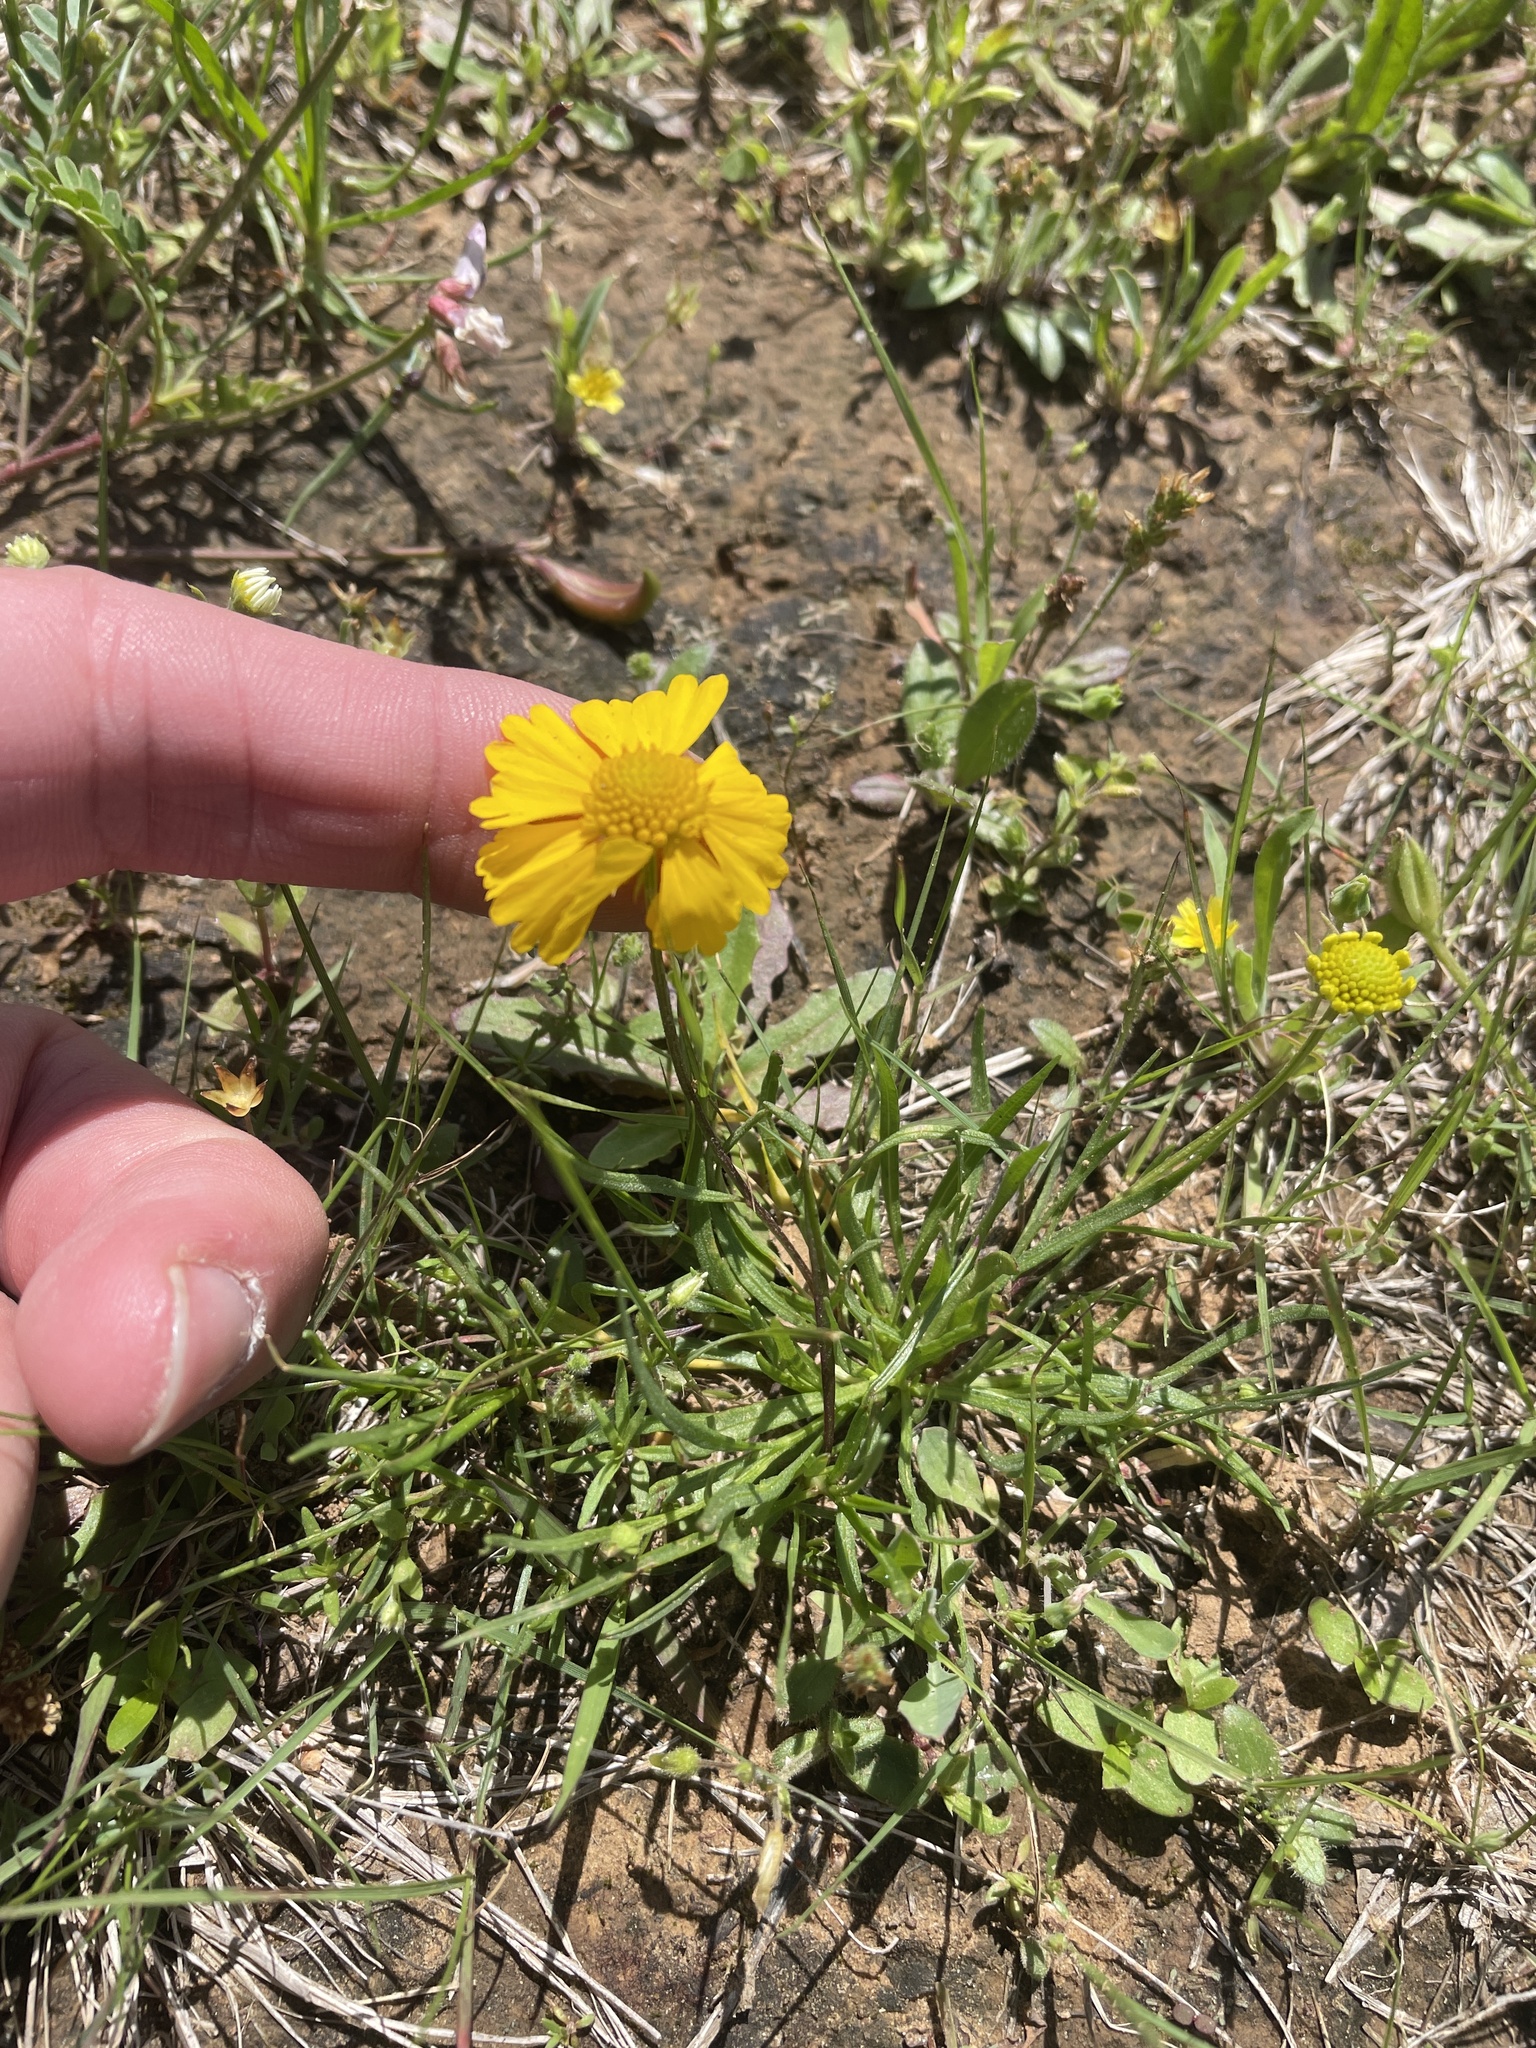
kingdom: Plantae
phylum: Tracheophyta
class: Magnoliopsida
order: Asterales
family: Asteraceae
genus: Helenium
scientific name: Helenium amarum
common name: Bitter sneezeweed
